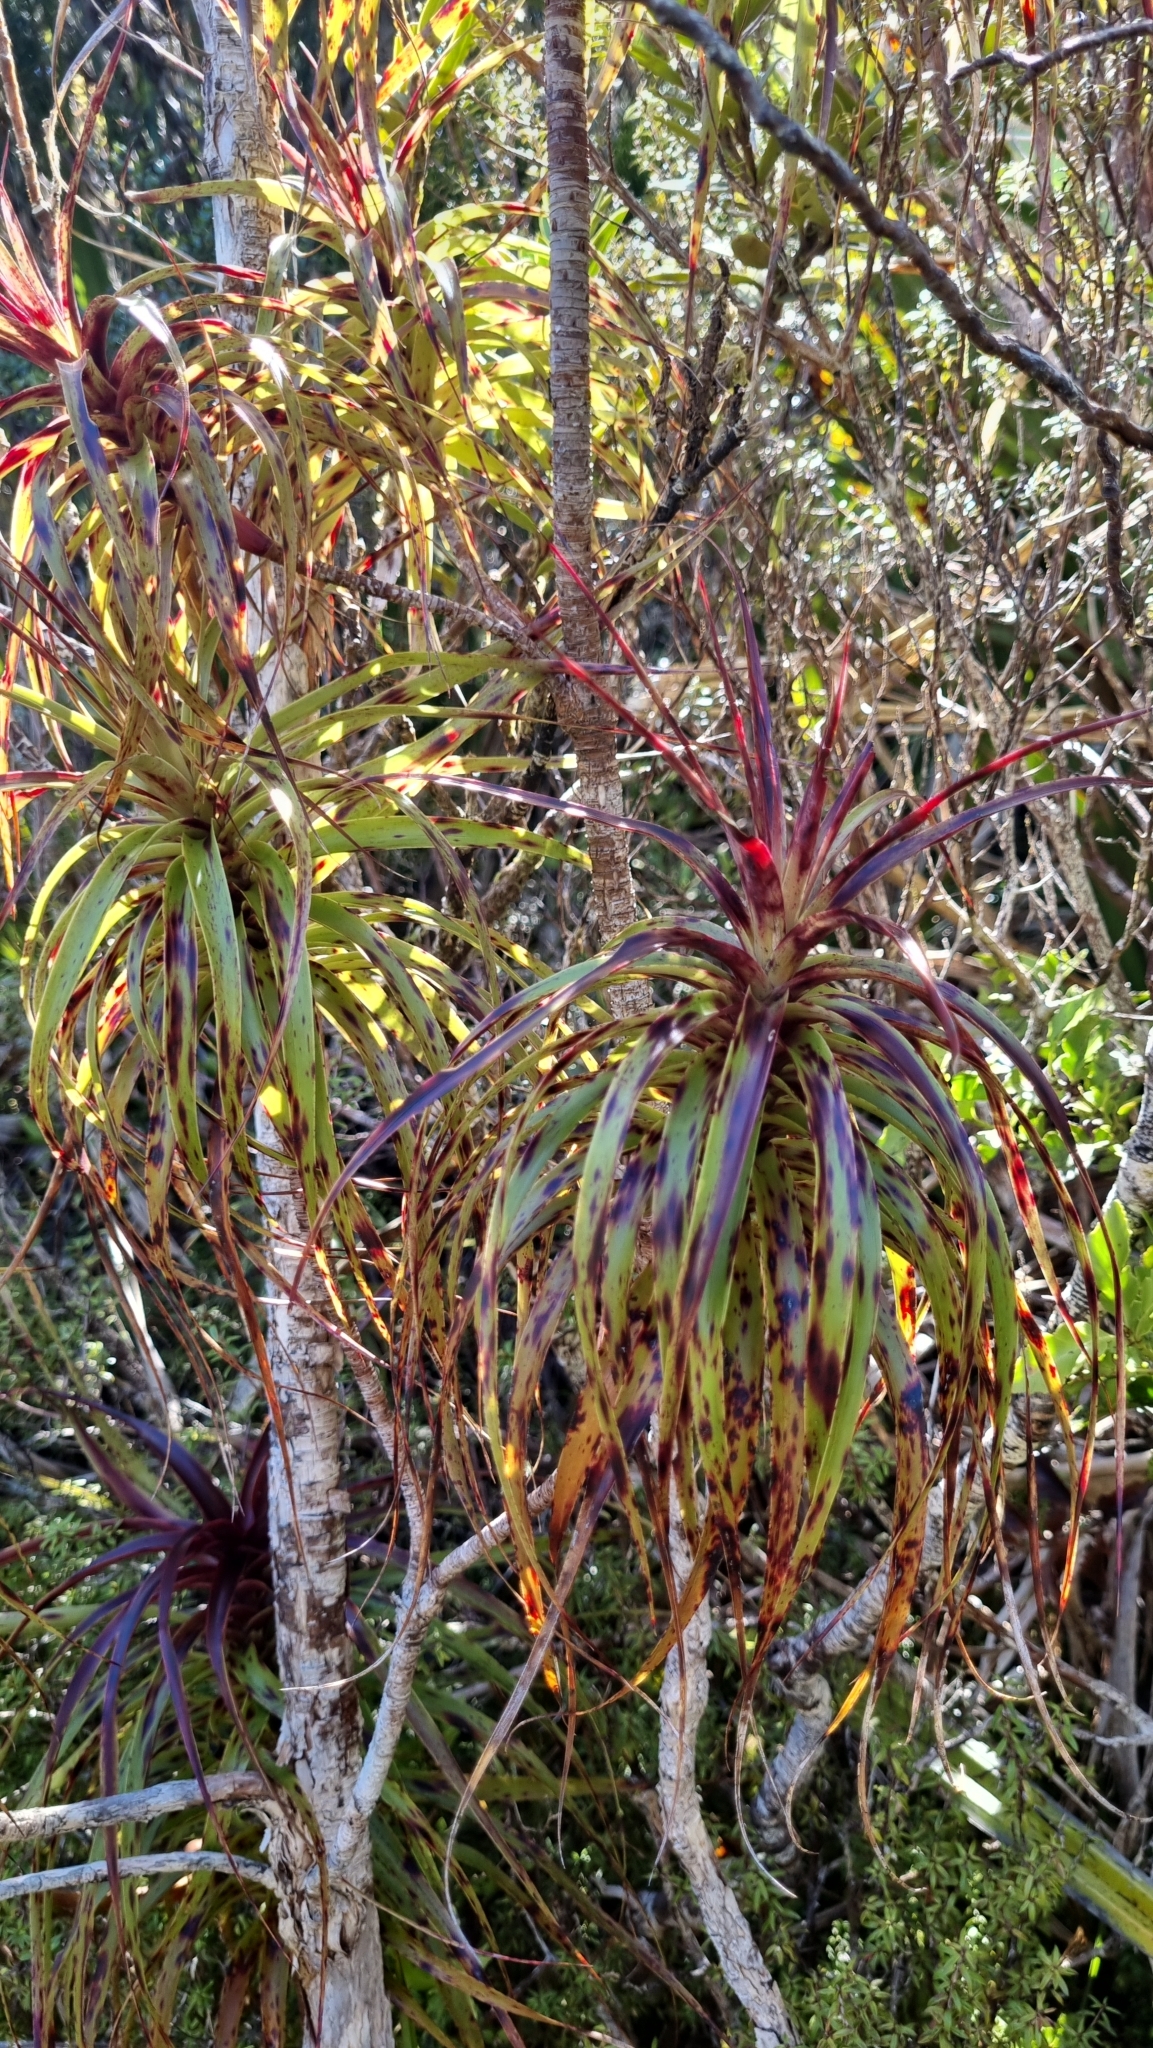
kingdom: Plantae
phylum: Tracheophyta
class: Magnoliopsida
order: Ericales
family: Ericaceae
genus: Dracophyllum
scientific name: Dracophyllum traversii
